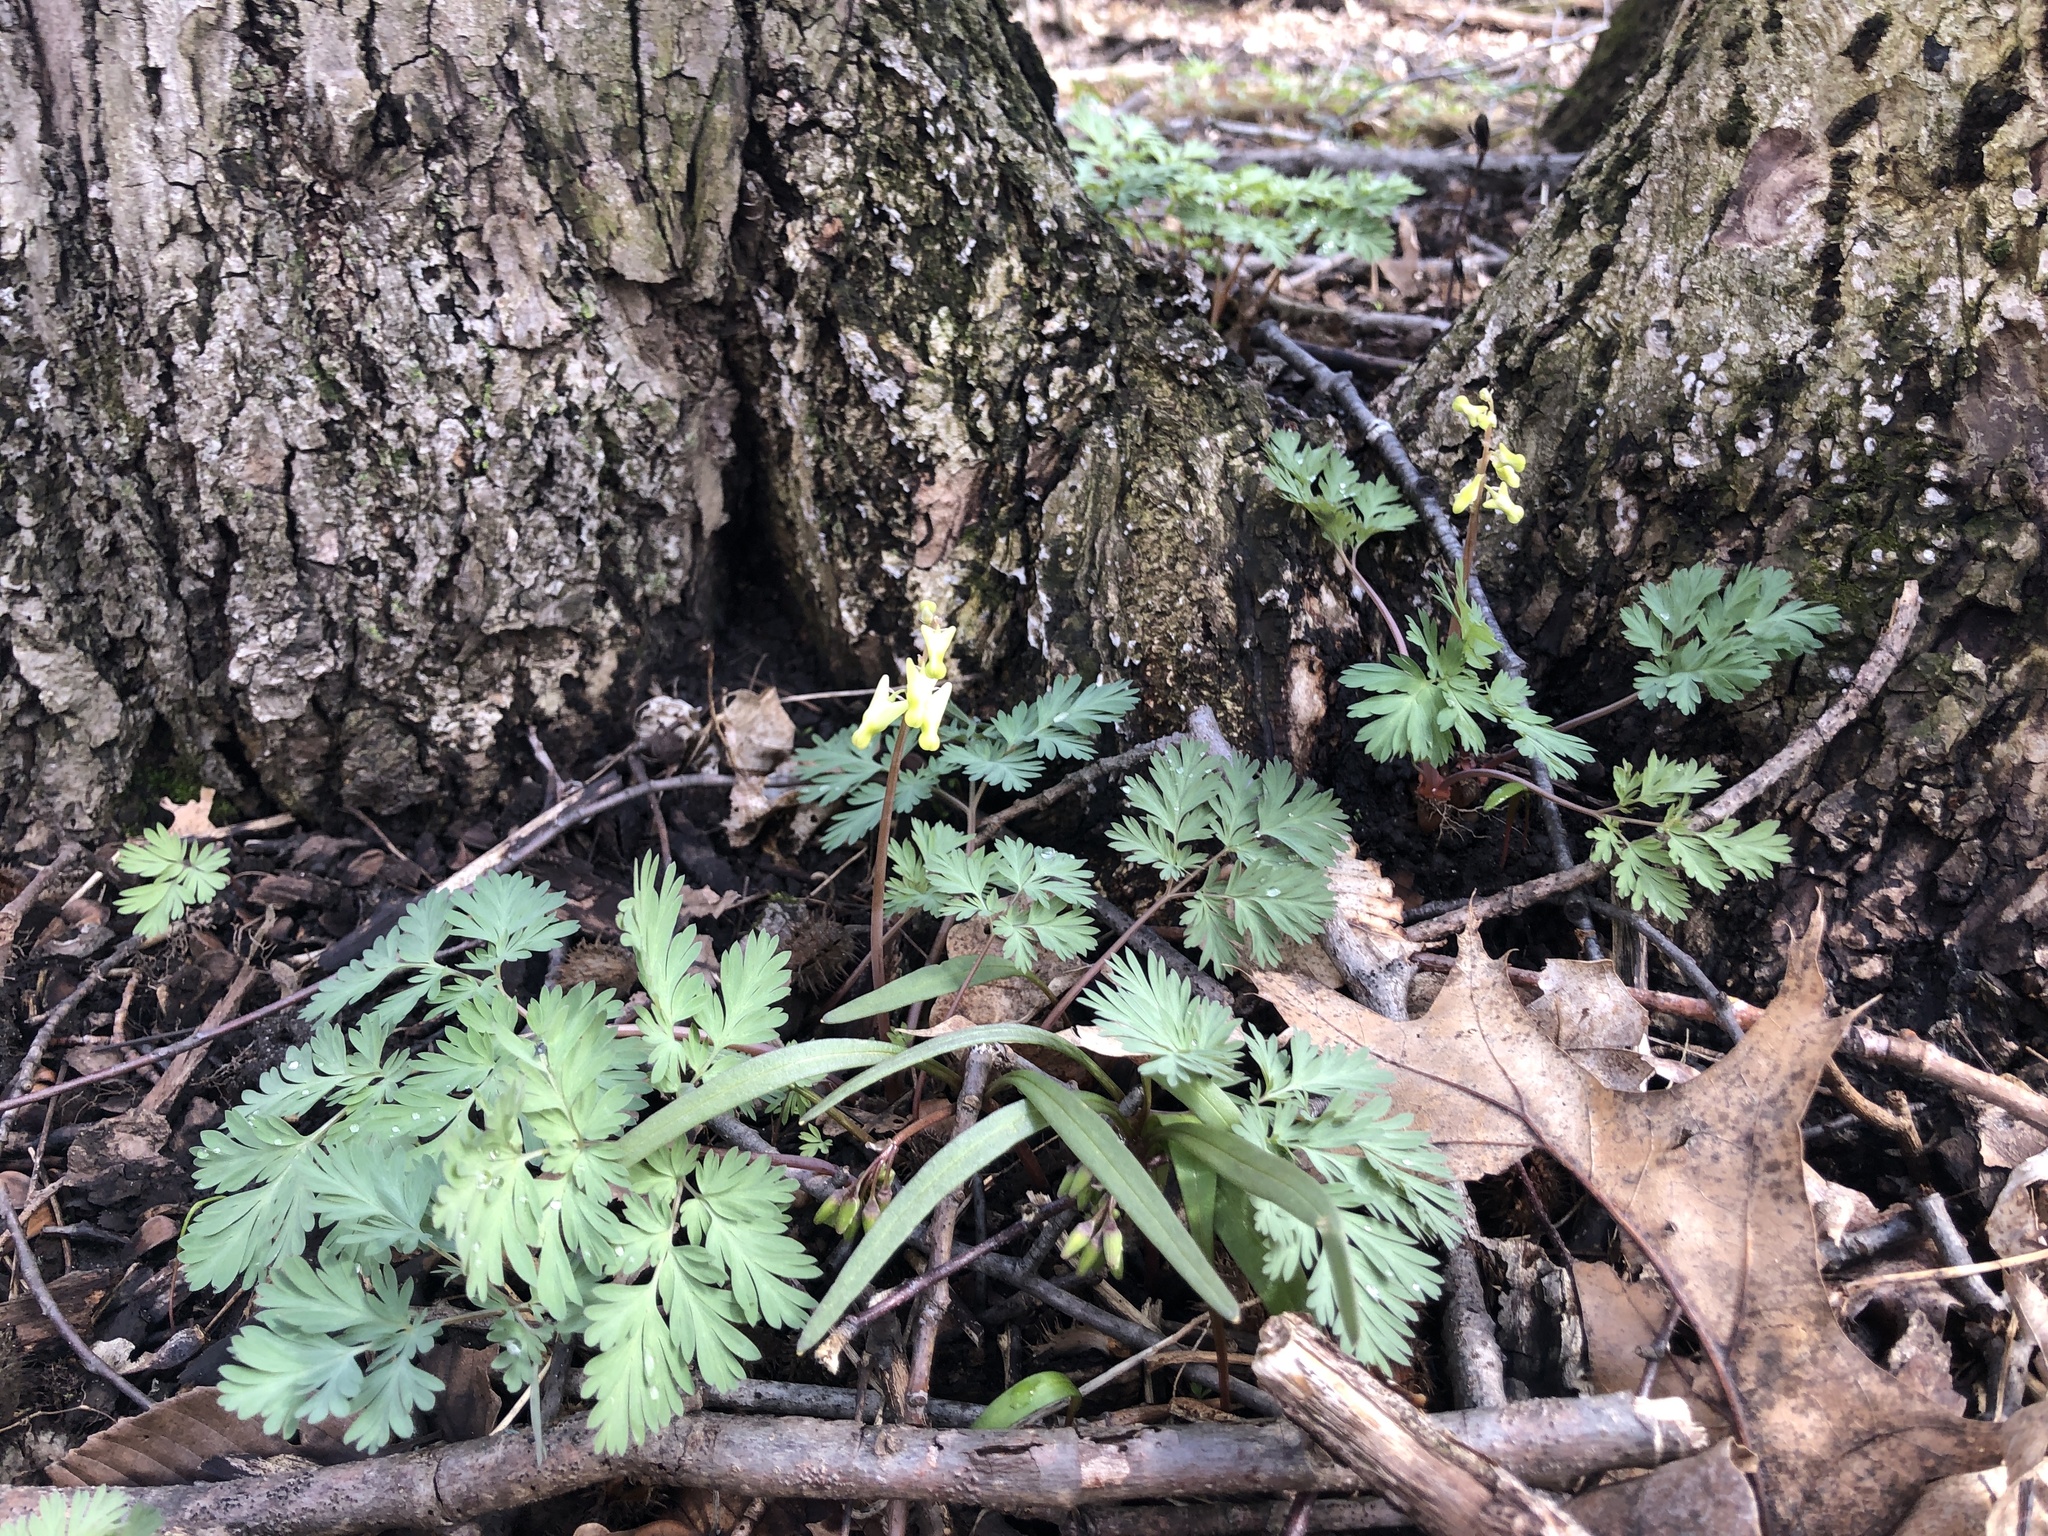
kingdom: Plantae
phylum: Tracheophyta
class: Magnoliopsida
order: Ranunculales
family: Papaveraceae
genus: Dicentra
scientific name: Dicentra cucullaria
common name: Dutchman's breeches
